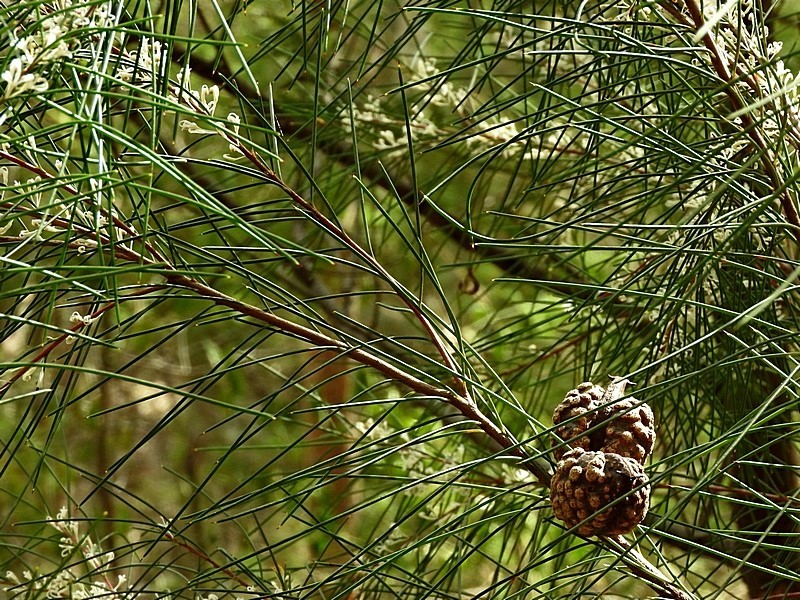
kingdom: Plantae
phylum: Tracheophyta
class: Magnoliopsida
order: Proteales
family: Proteaceae
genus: Hakea
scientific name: Hakea macraeana
